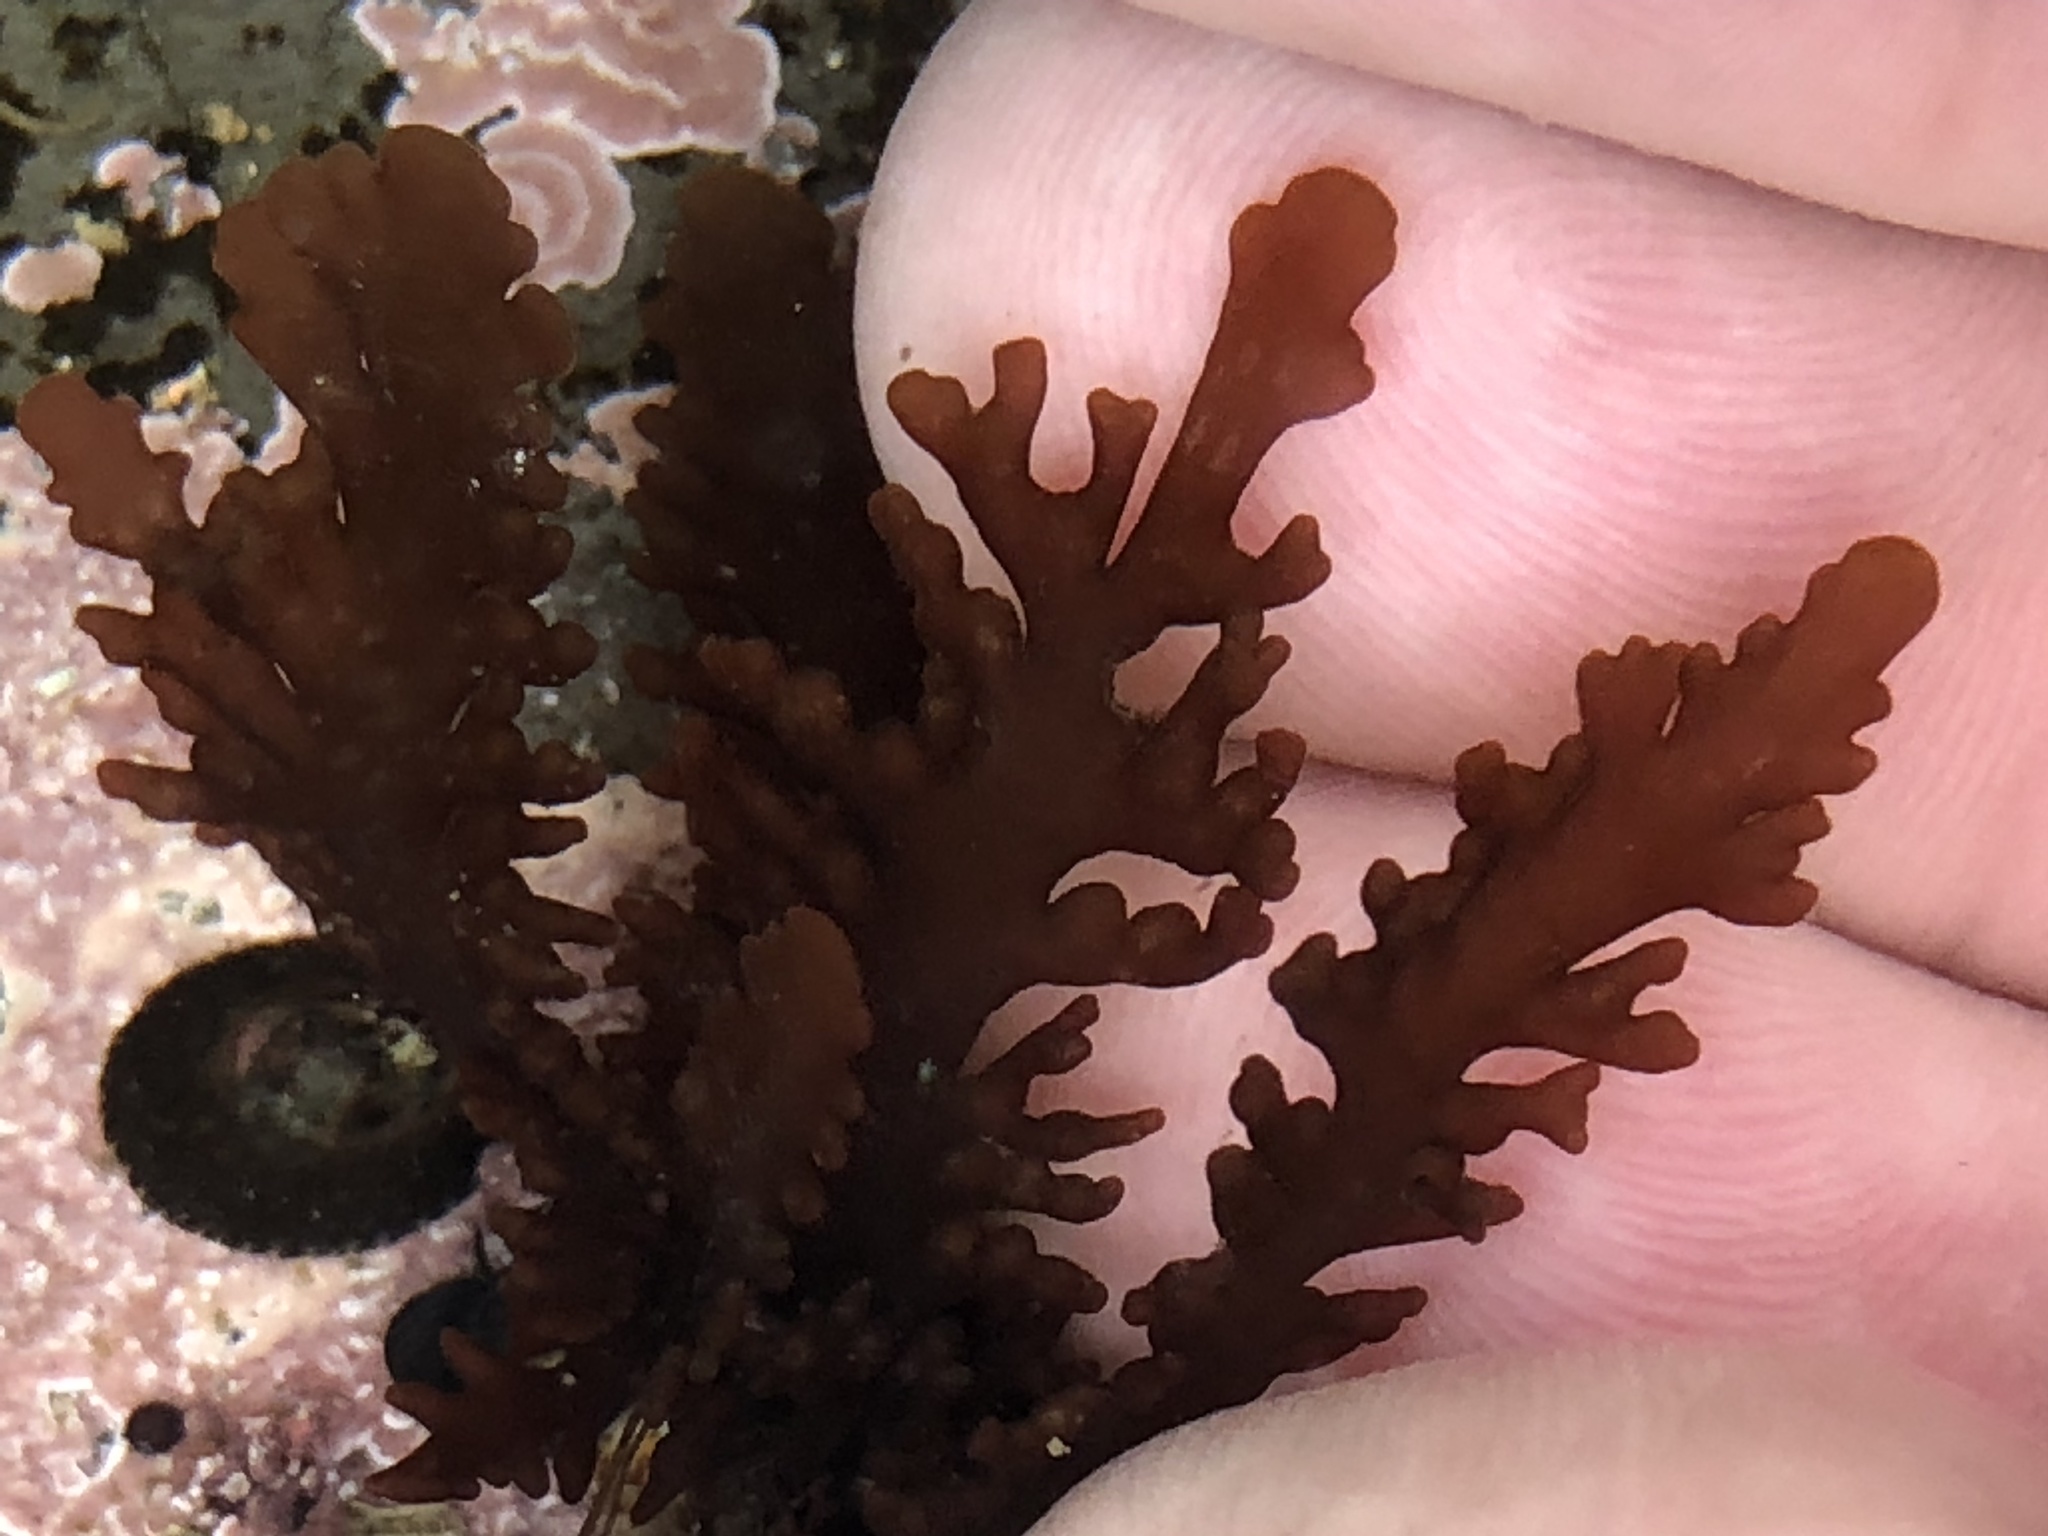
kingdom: Plantae
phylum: Rhodophyta
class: Florideophyceae
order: Ceramiales
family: Rhodomelaceae
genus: Osmundea
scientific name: Osmundea spectabilis
